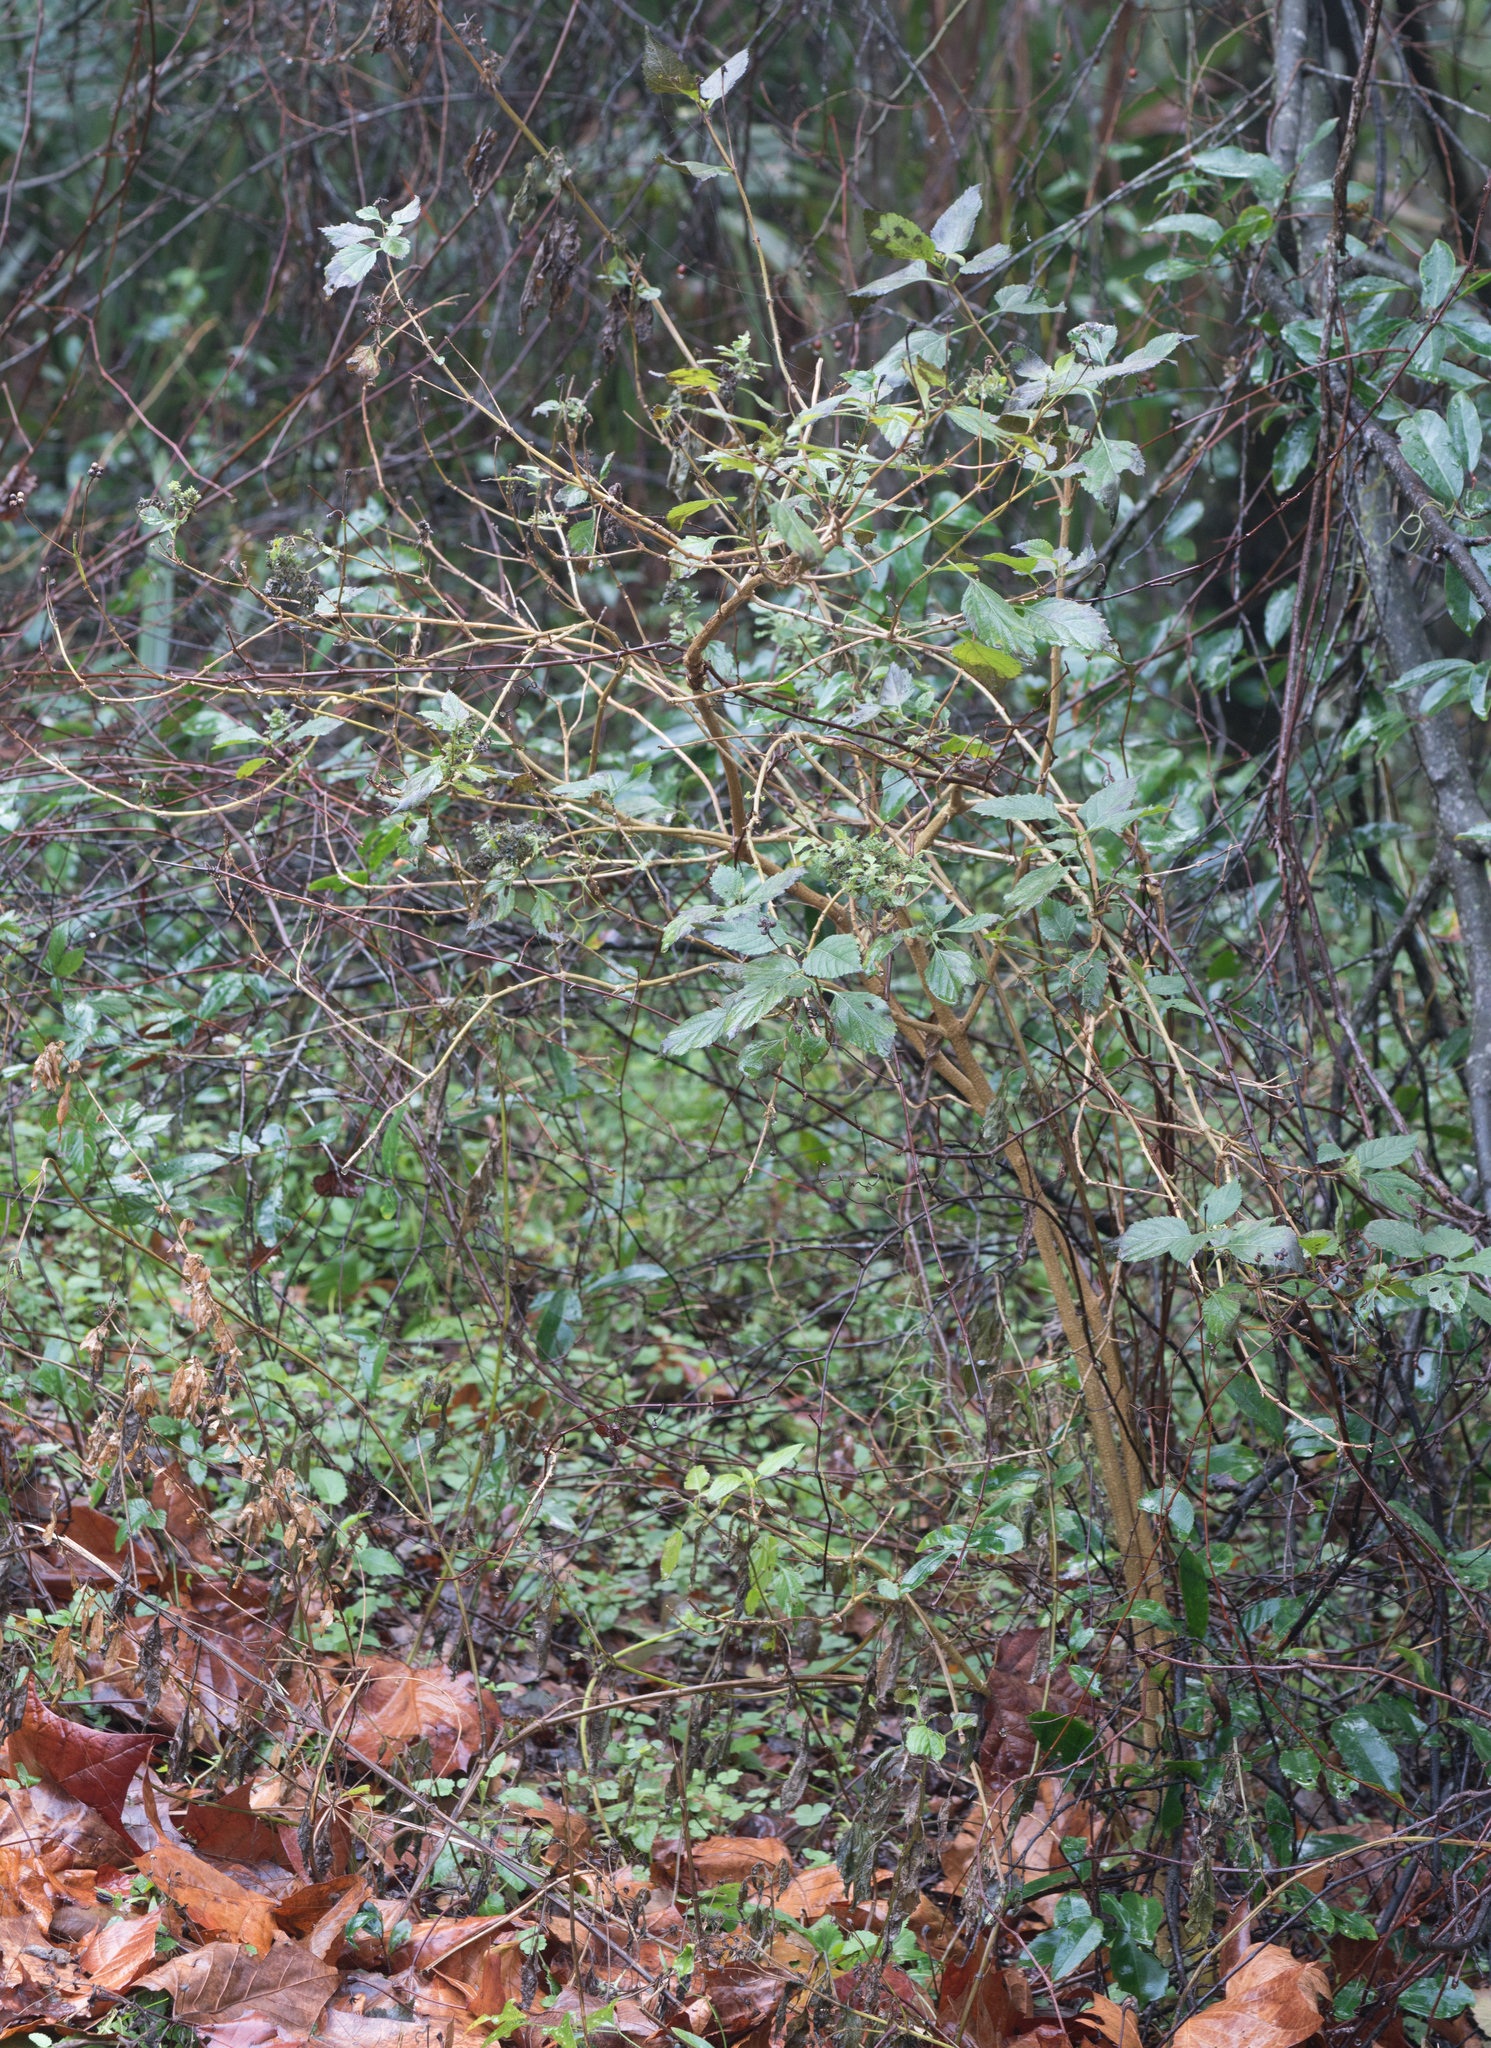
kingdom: Plantae
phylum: Tracheophyta
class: Magnoliopsida
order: Lamiales
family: Verbenaceae
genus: Lantana
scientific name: Lantana camara
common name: Lantana
